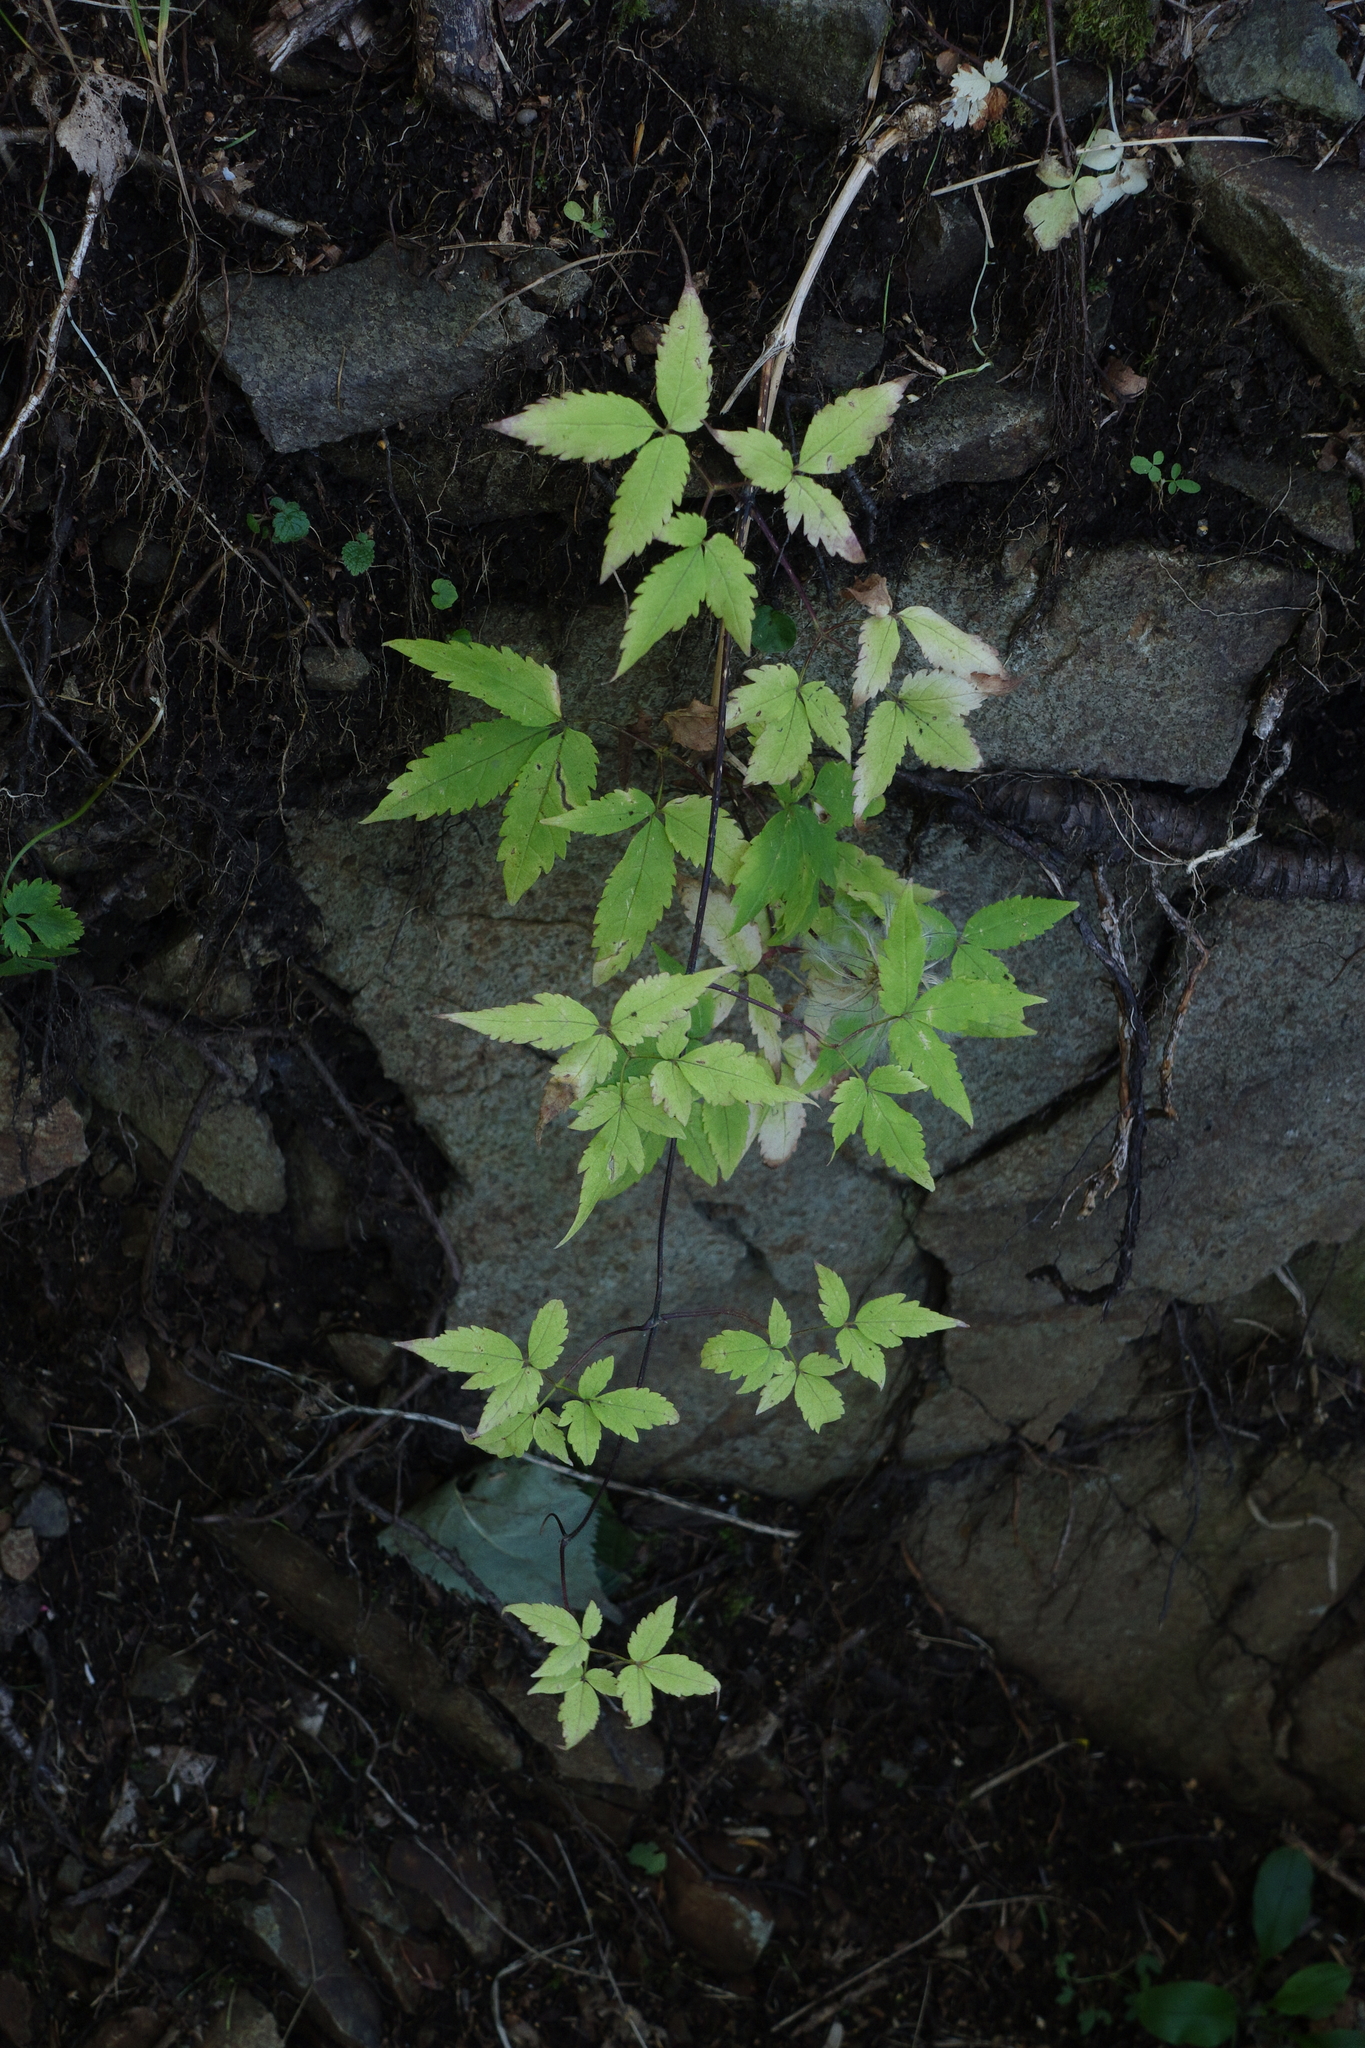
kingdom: Plantae
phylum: Tracheophyta
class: Magnoliopsida
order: Ranunculales
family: Ranunculaceae
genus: Clematis
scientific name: Clematis sibirica
